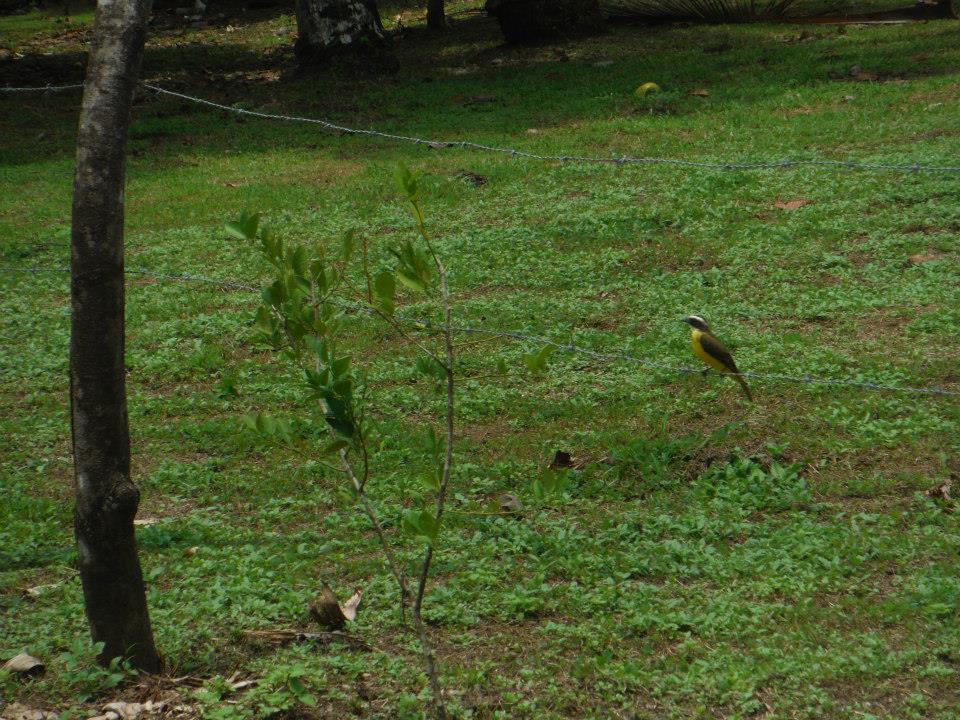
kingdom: Animalia
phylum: Chordata
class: Aves
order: Passeriformes
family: Tyrannidae
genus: Pitangus
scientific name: Pitangus sulphuratus
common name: Great kiskadee
